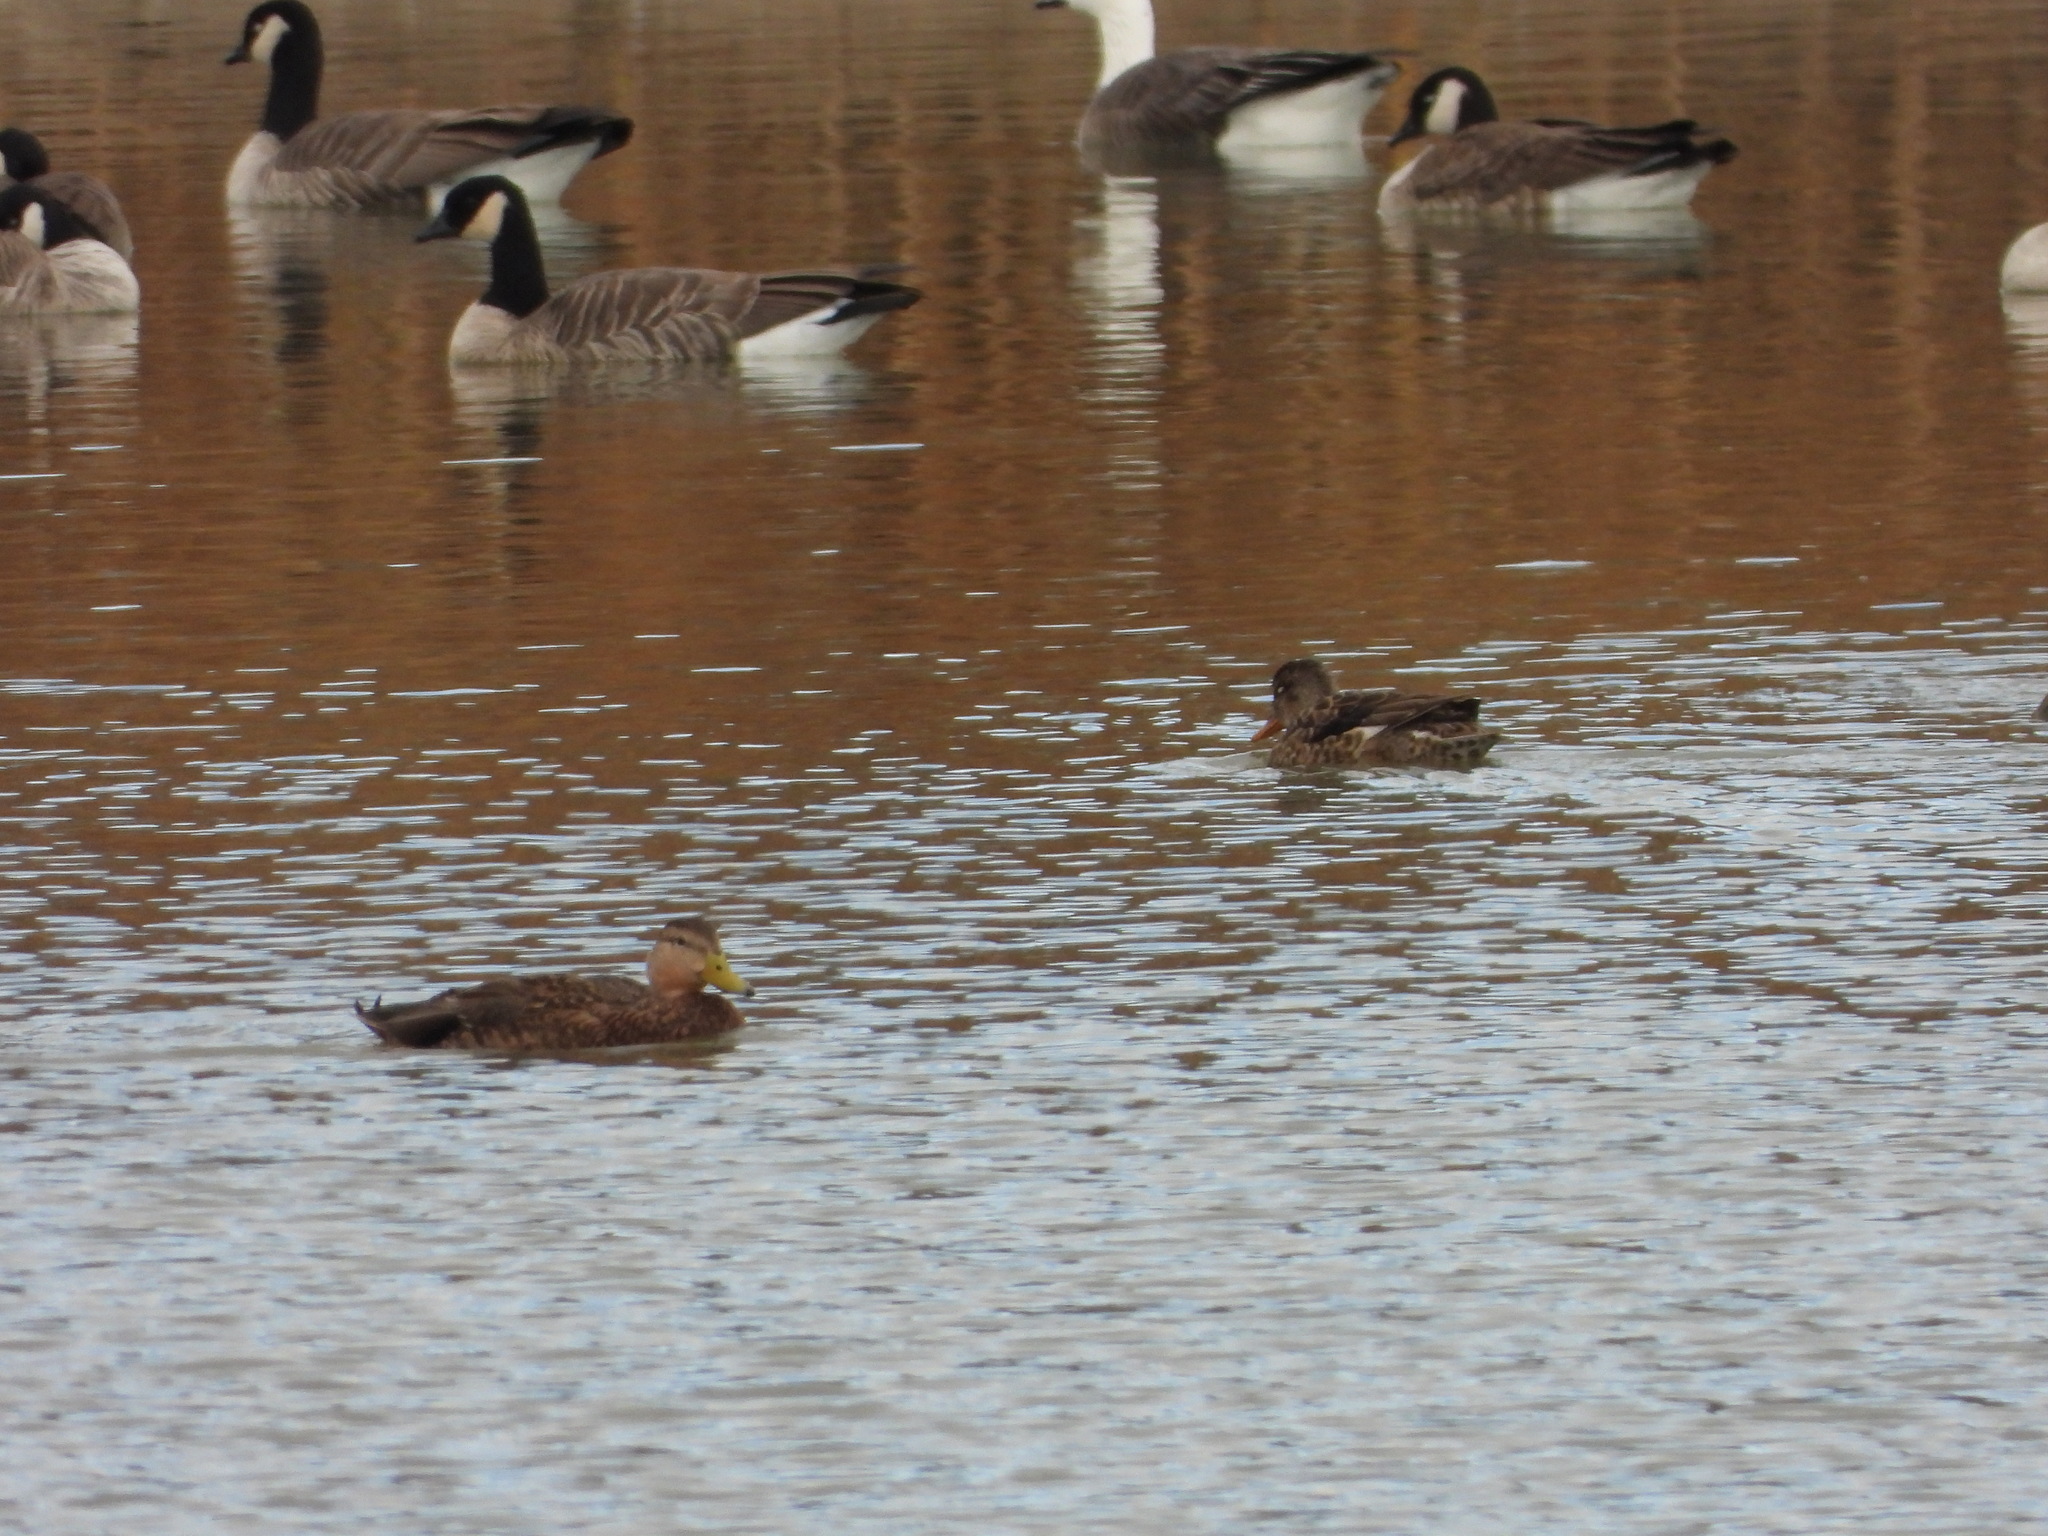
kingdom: Animalia
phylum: Chordata
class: Aves
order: Anseriformes
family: Anatidae
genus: Mareca
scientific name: Mareca strepera
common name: Gadwall
